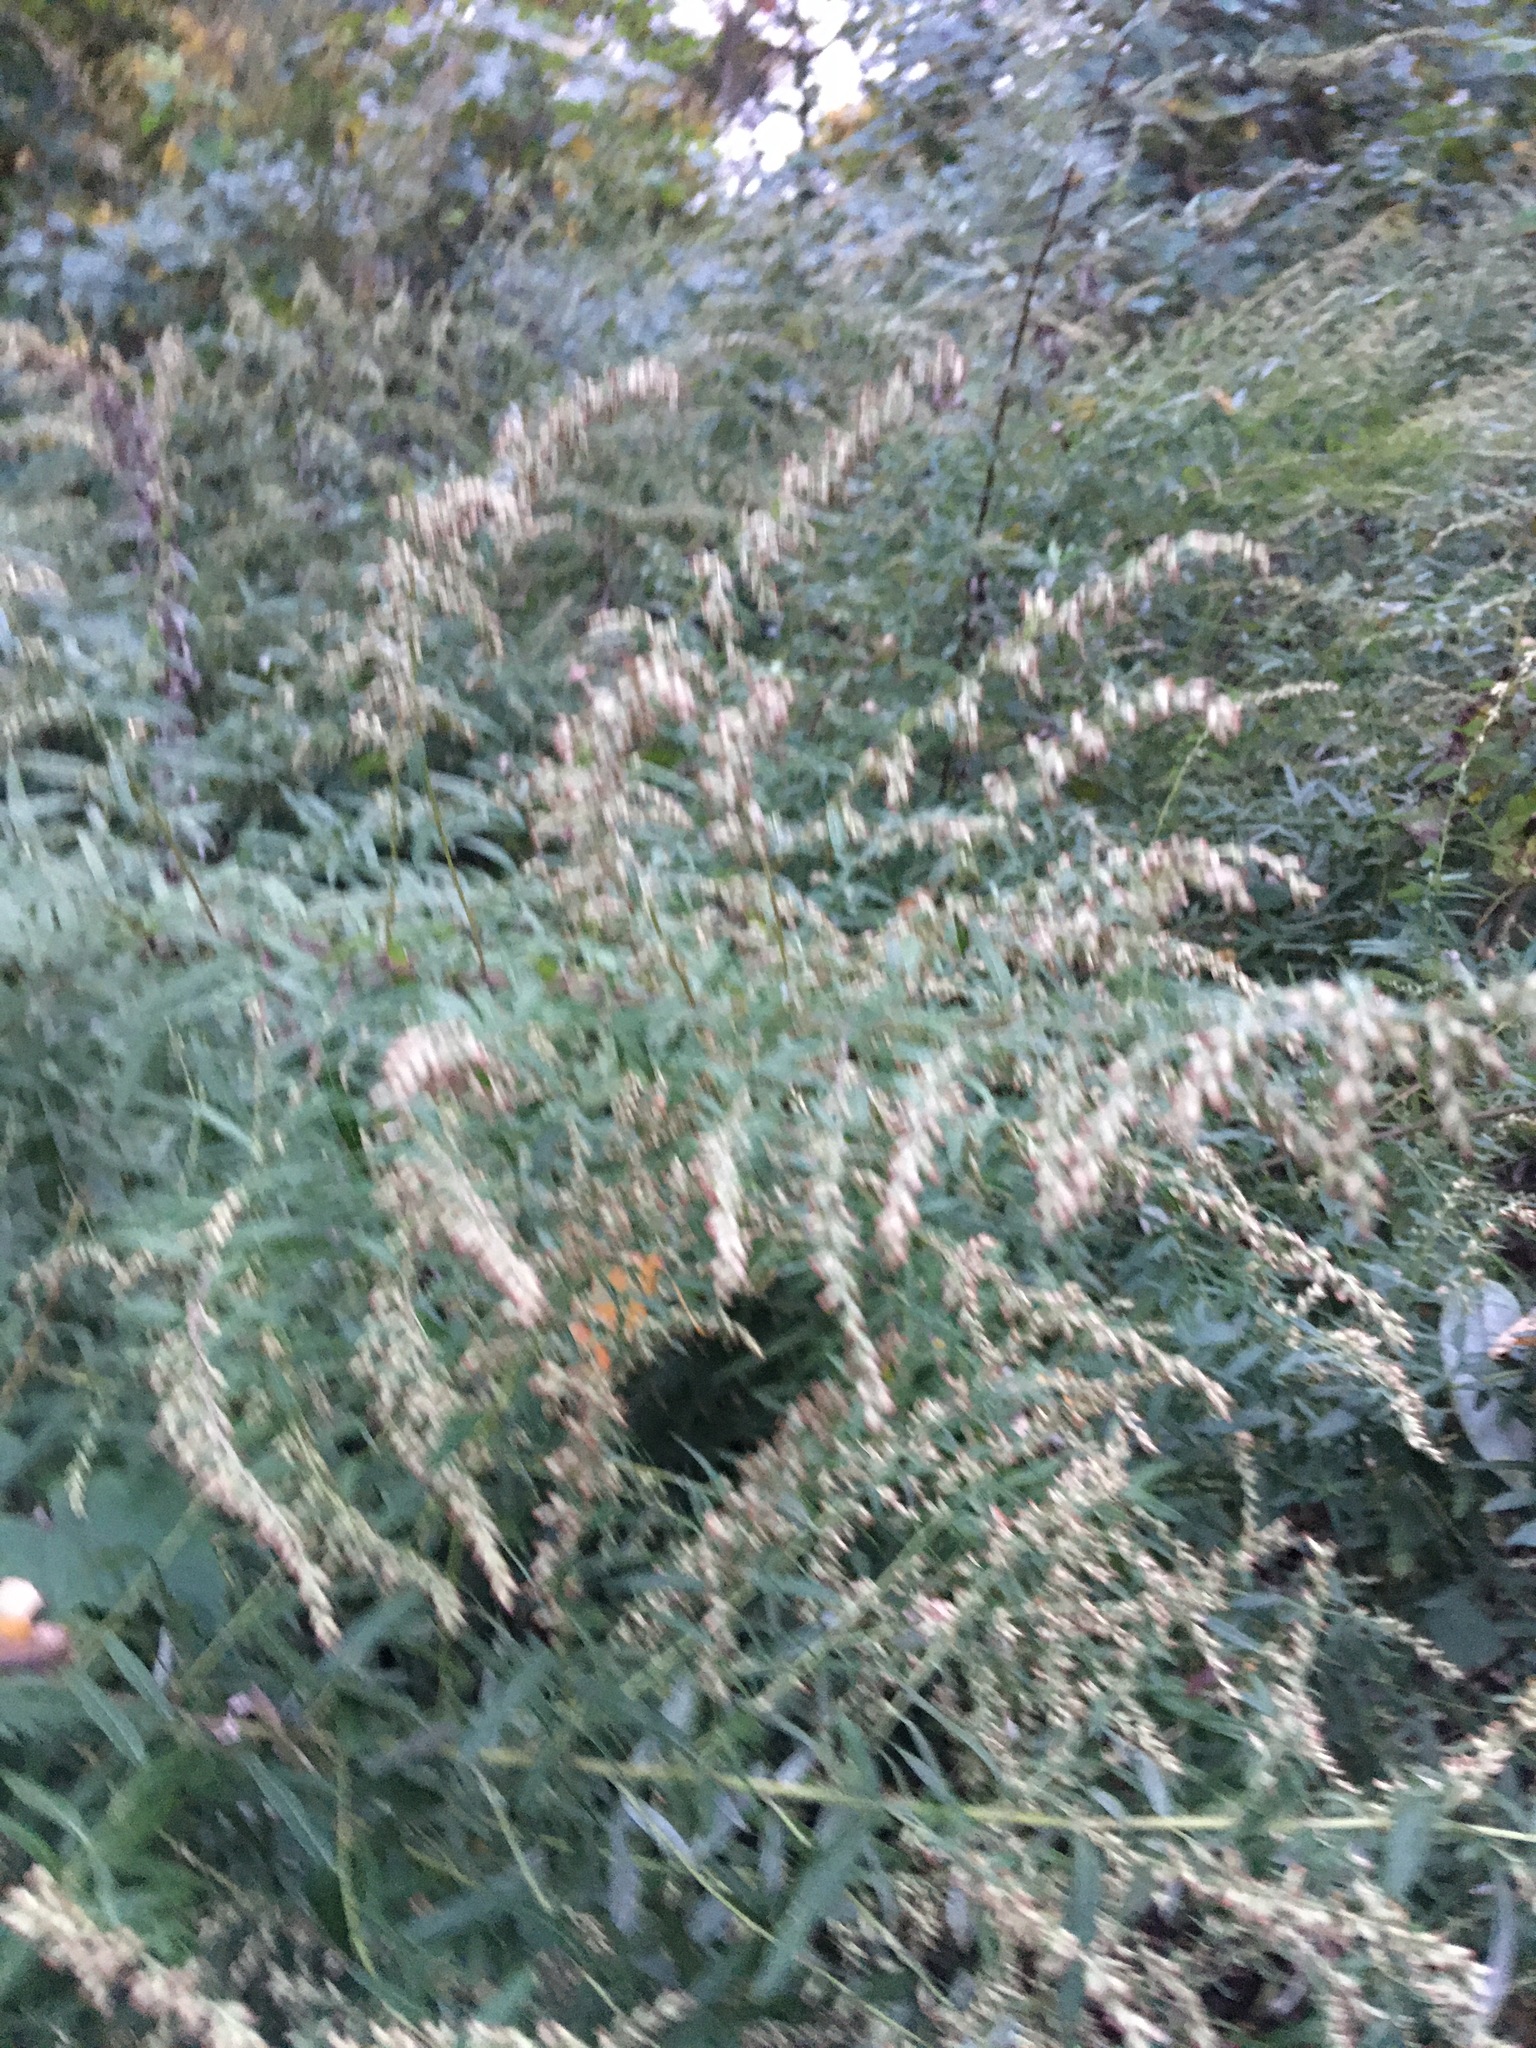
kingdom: Plantae
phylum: Tracheophyta
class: Magnoliopsida
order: Asterales
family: Asteraceae
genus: Artemisia
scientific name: Artemisia vulgaris
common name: Mugwort
